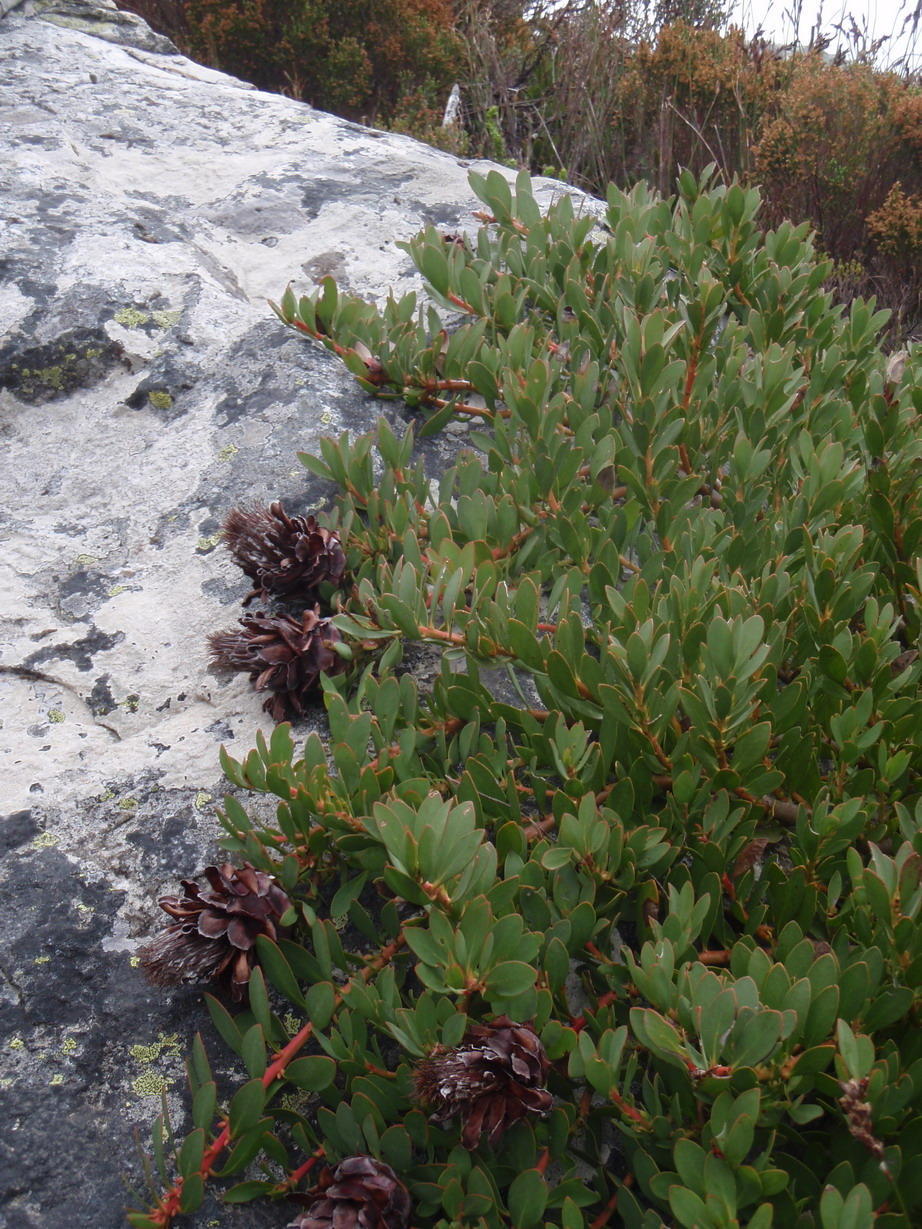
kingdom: Plantae
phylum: Tracheophyta
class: Magnoliopsida
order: Proteales
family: Proteaceae
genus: Protea
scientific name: Protea venusta
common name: Cascade sugarbush
